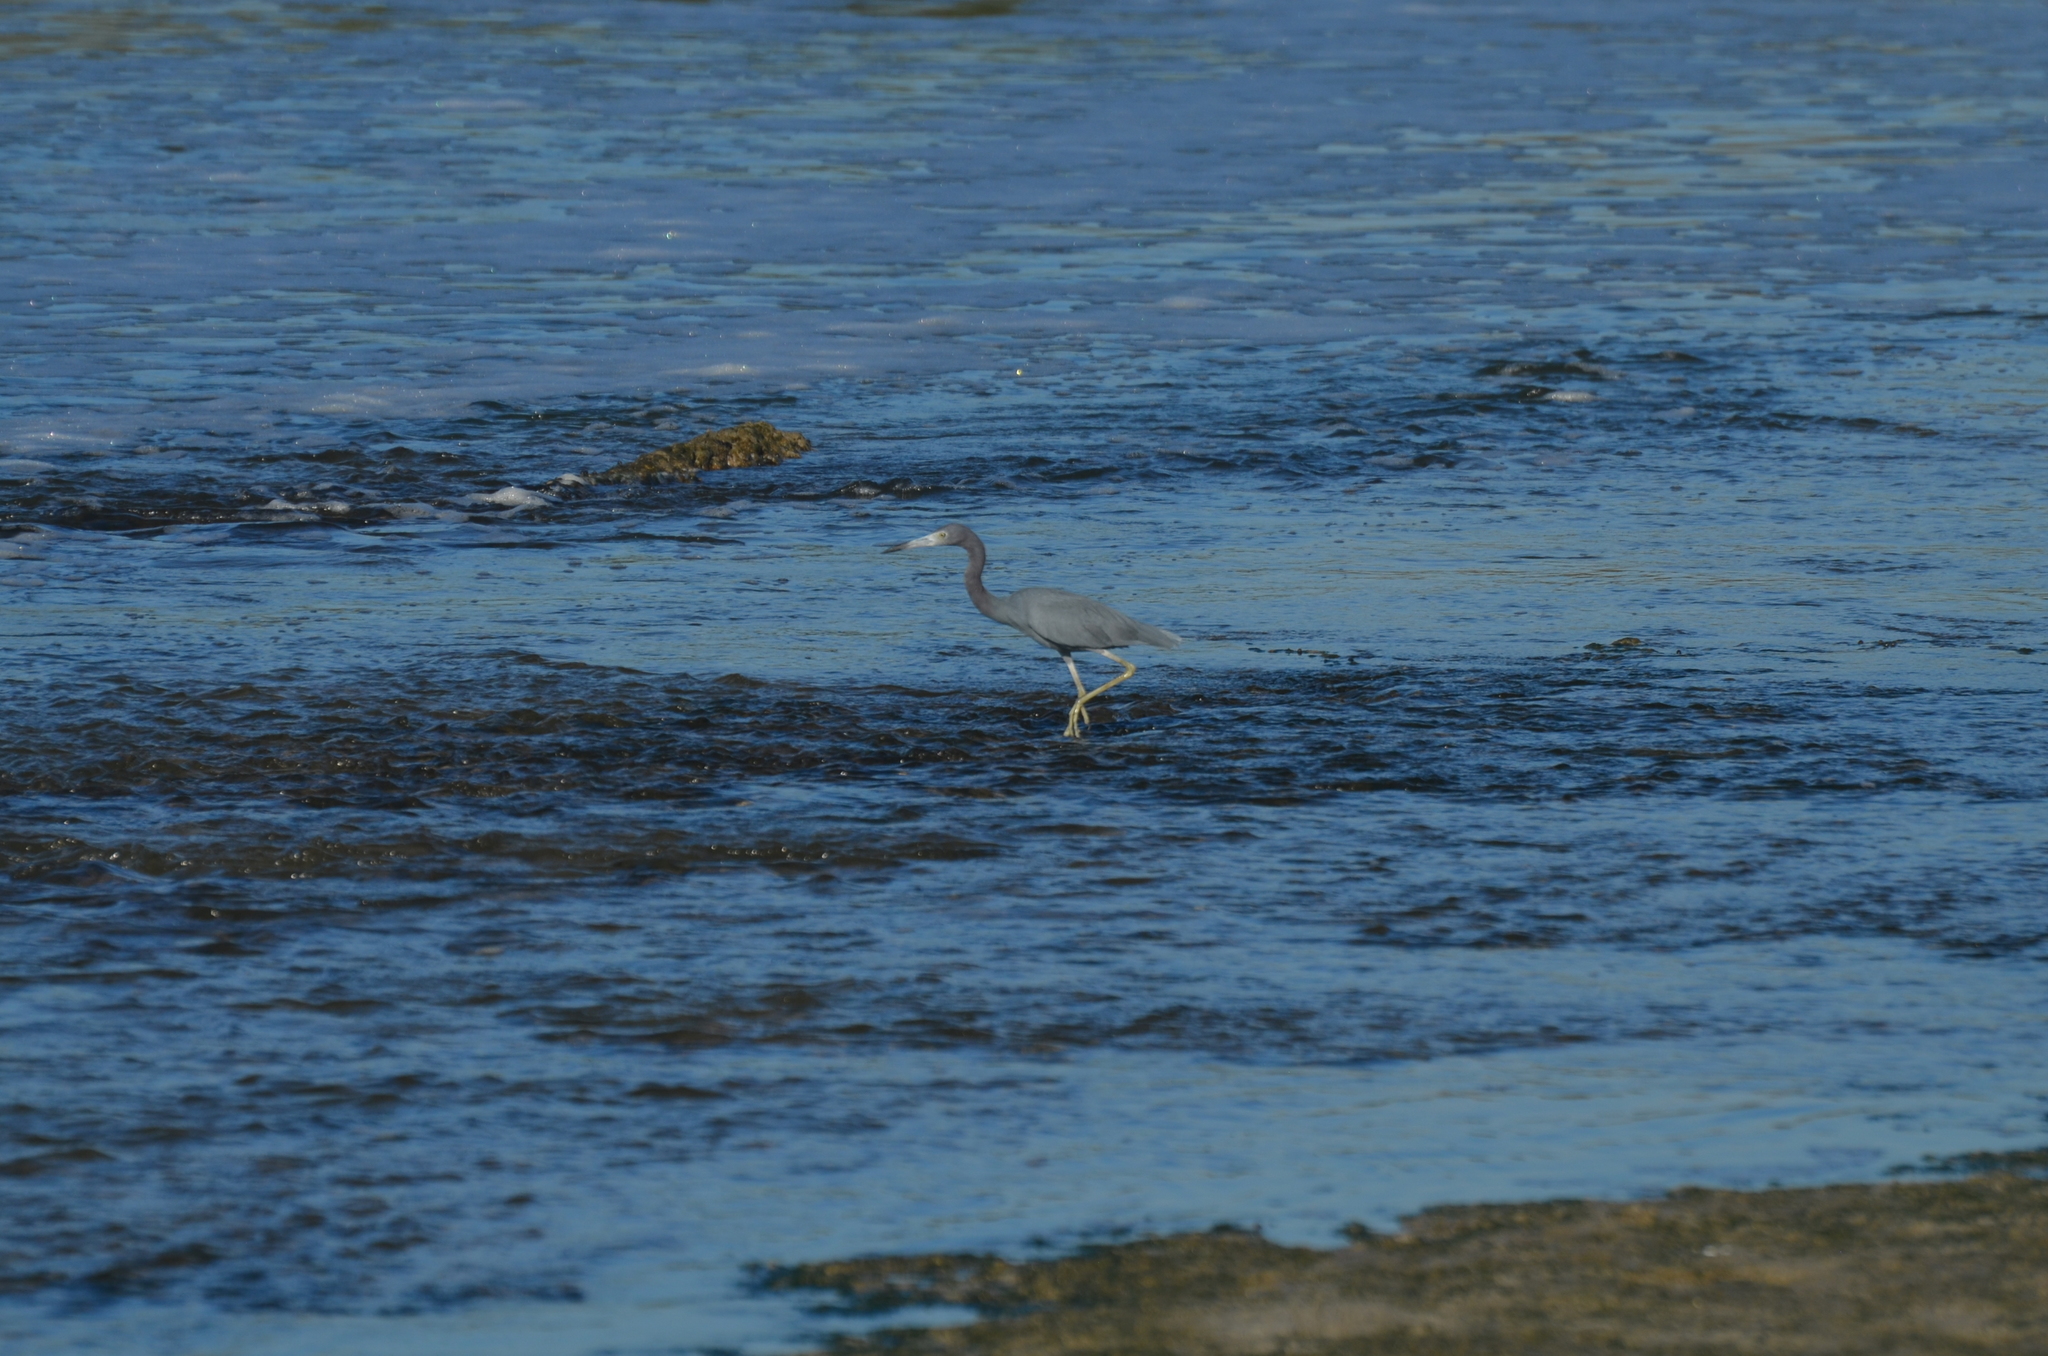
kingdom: Animalia
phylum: Chordata
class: Aves
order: Pelecaniformes
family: Ardeidae
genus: Egretta
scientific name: Egretta caerulea
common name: Little blue heron
